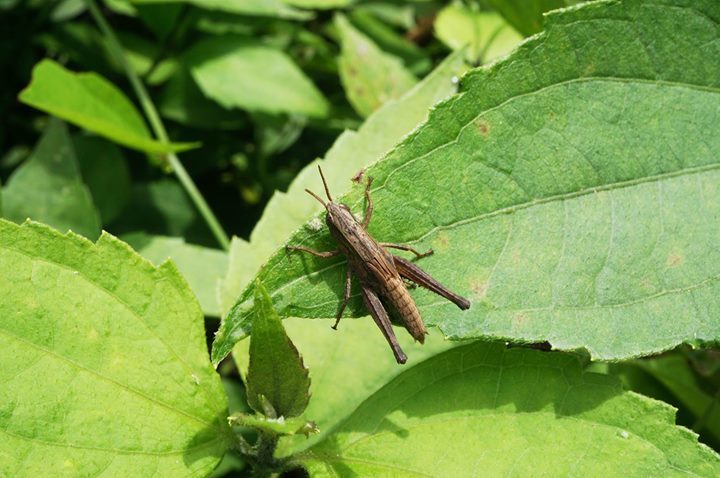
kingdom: Animalia
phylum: Arthropoda
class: Insecta
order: Orthoptera
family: Acrididae
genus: Dichromorpha
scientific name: Dichromorpha viridis
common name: Short-winged green grasshopper
